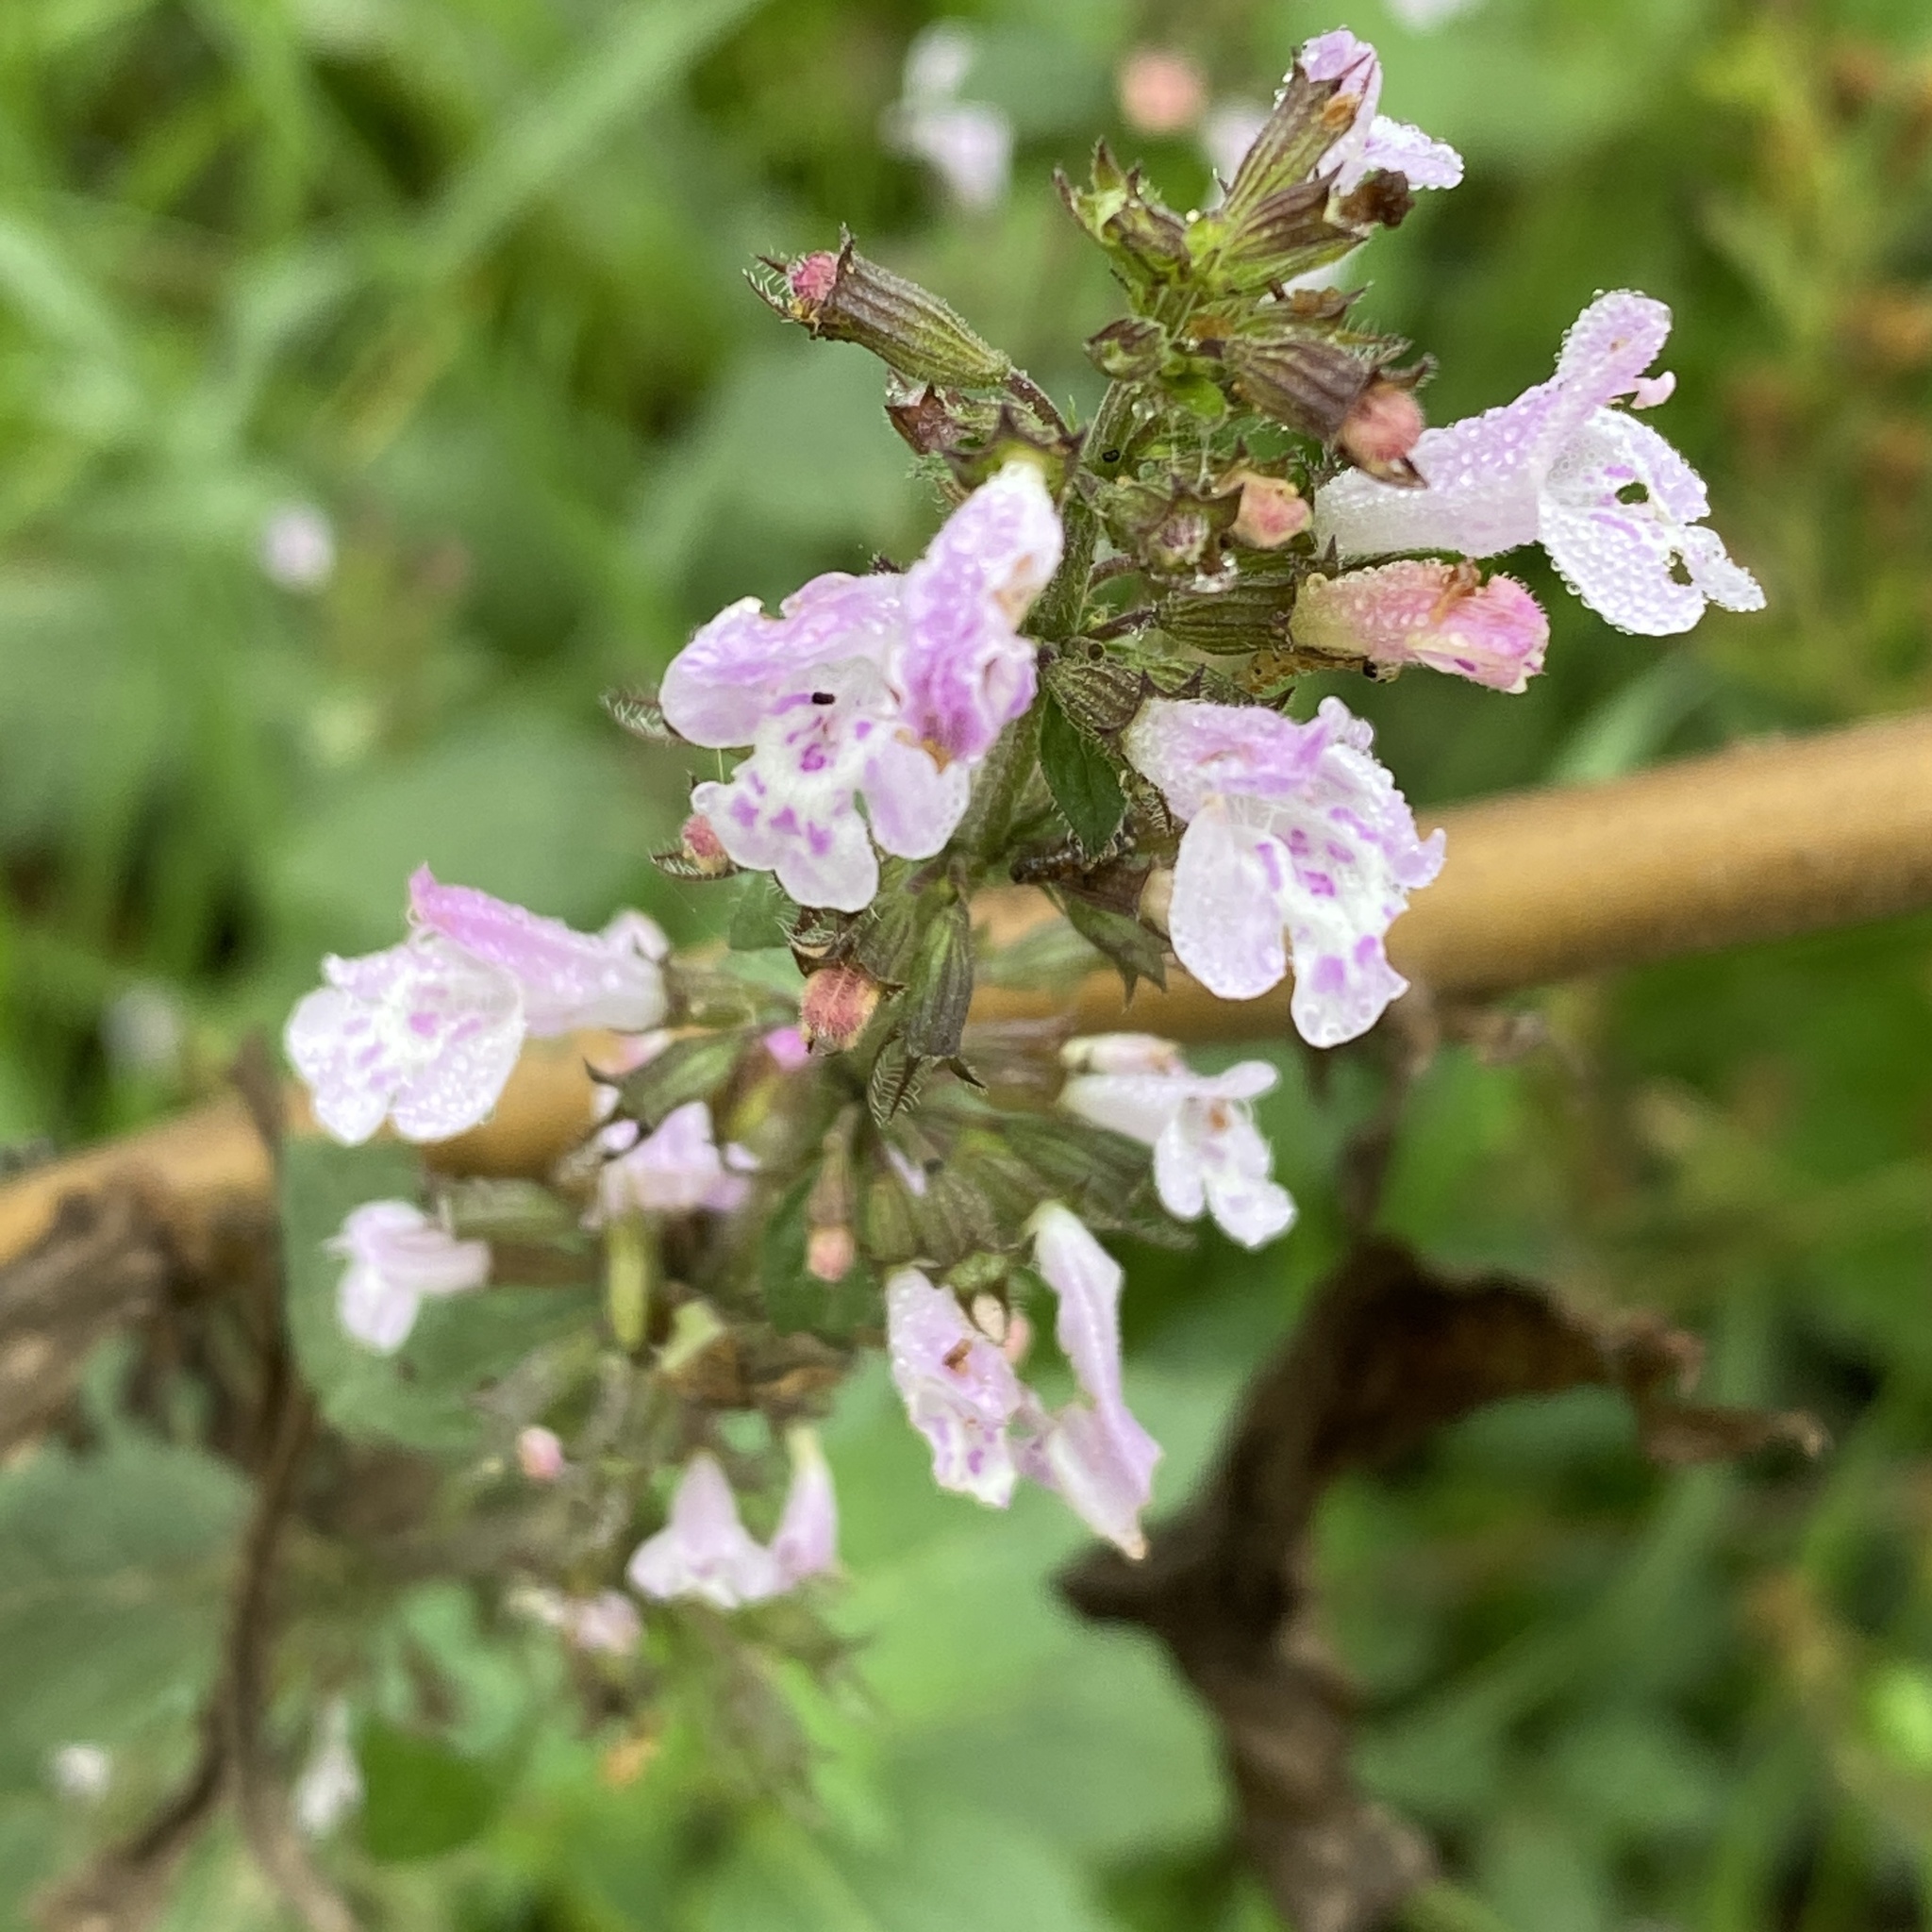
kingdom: Plantae
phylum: Tracheophyta
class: Magnoliopsida
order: Lamiales
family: Lamiaceae
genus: Clinopodium
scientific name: Clinopodium nepeta
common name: Lesser calamint
